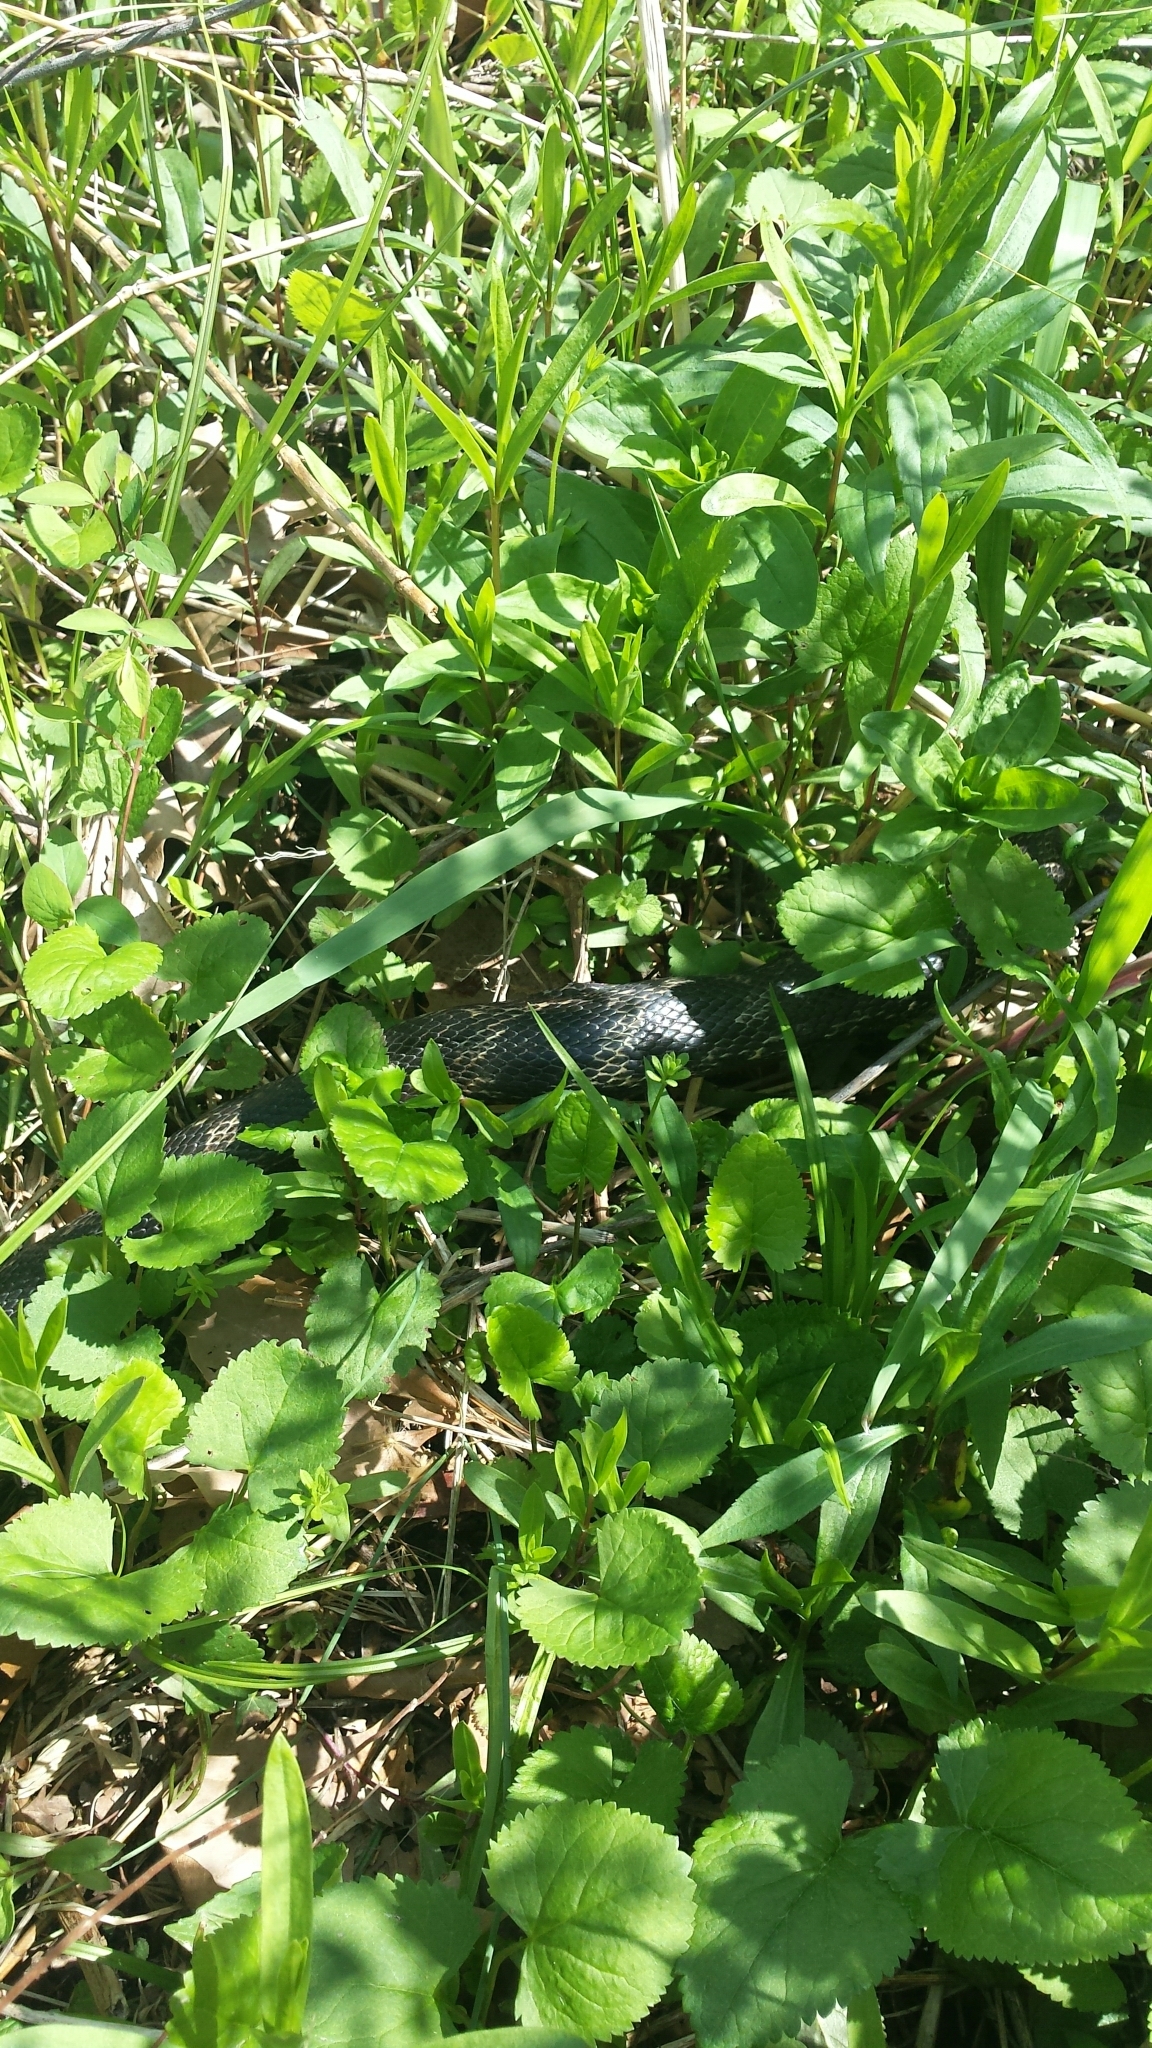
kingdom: Animalia
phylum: Chordata
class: Squamata
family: Colubridae
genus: Pantherophis
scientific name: Pantherophis spiloides
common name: Gray rat snake
